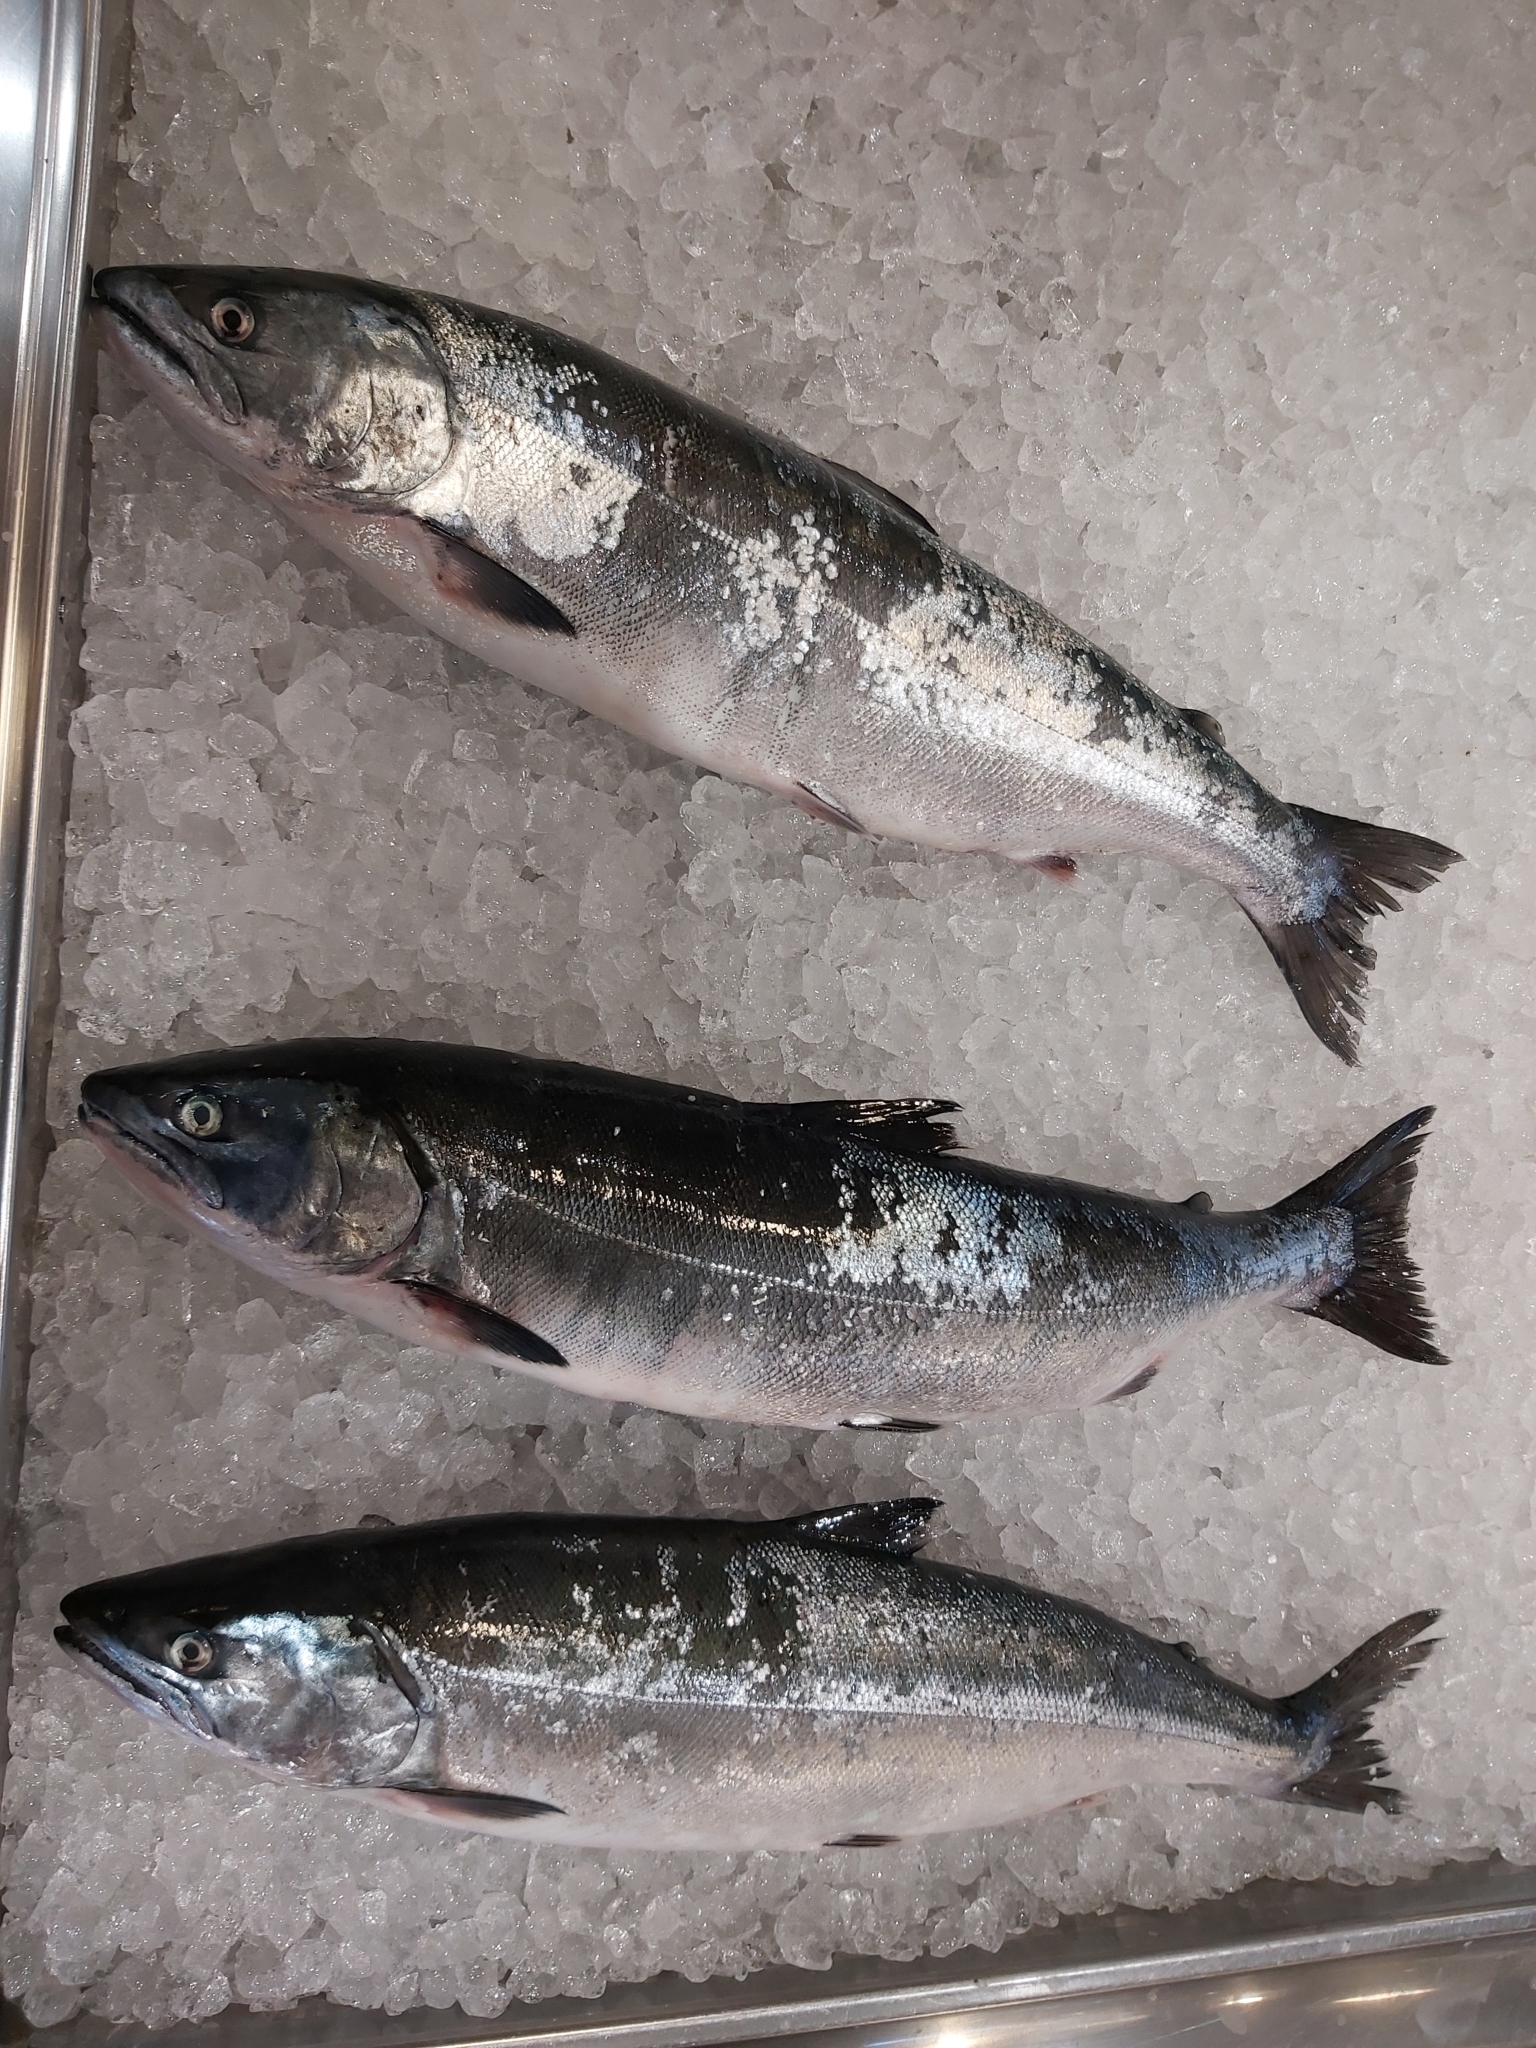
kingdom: Animalia
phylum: Chordata
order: Salmoniformes
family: Salmonidae
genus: Oncorhynchus
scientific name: Oncorhynchus masou
